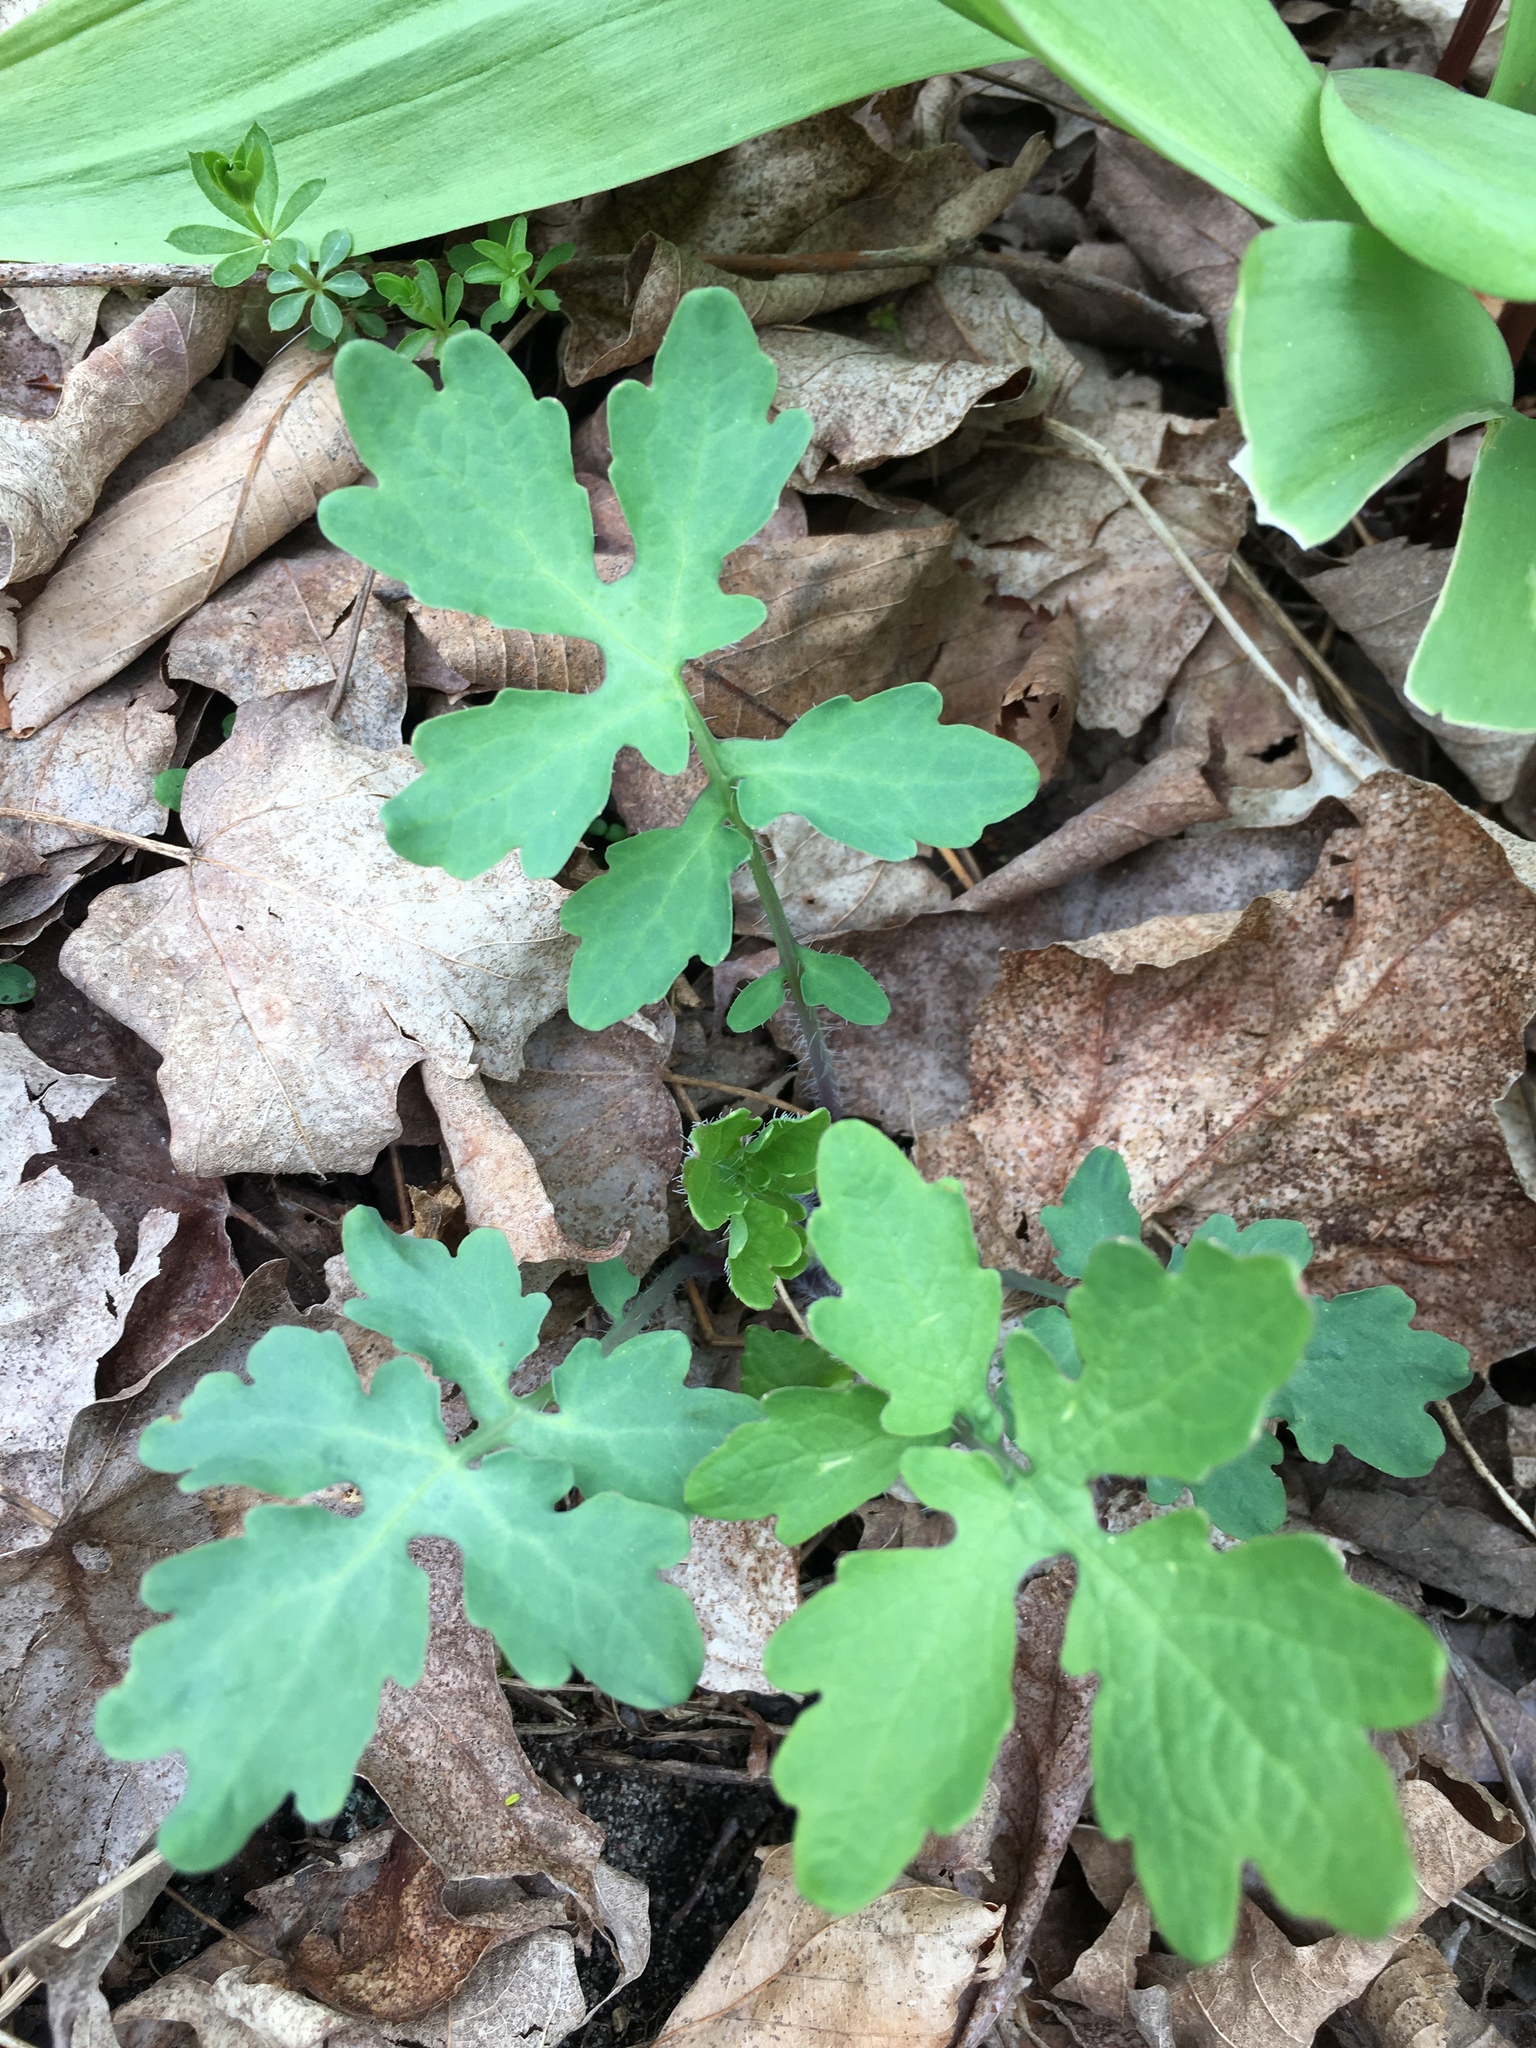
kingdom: Plantae
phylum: Tracheophyta
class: Magnoliopsida
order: Ranunculales
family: Papaveraceae
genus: Chelidonium
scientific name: Chelidonium majus
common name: Greater celandine
